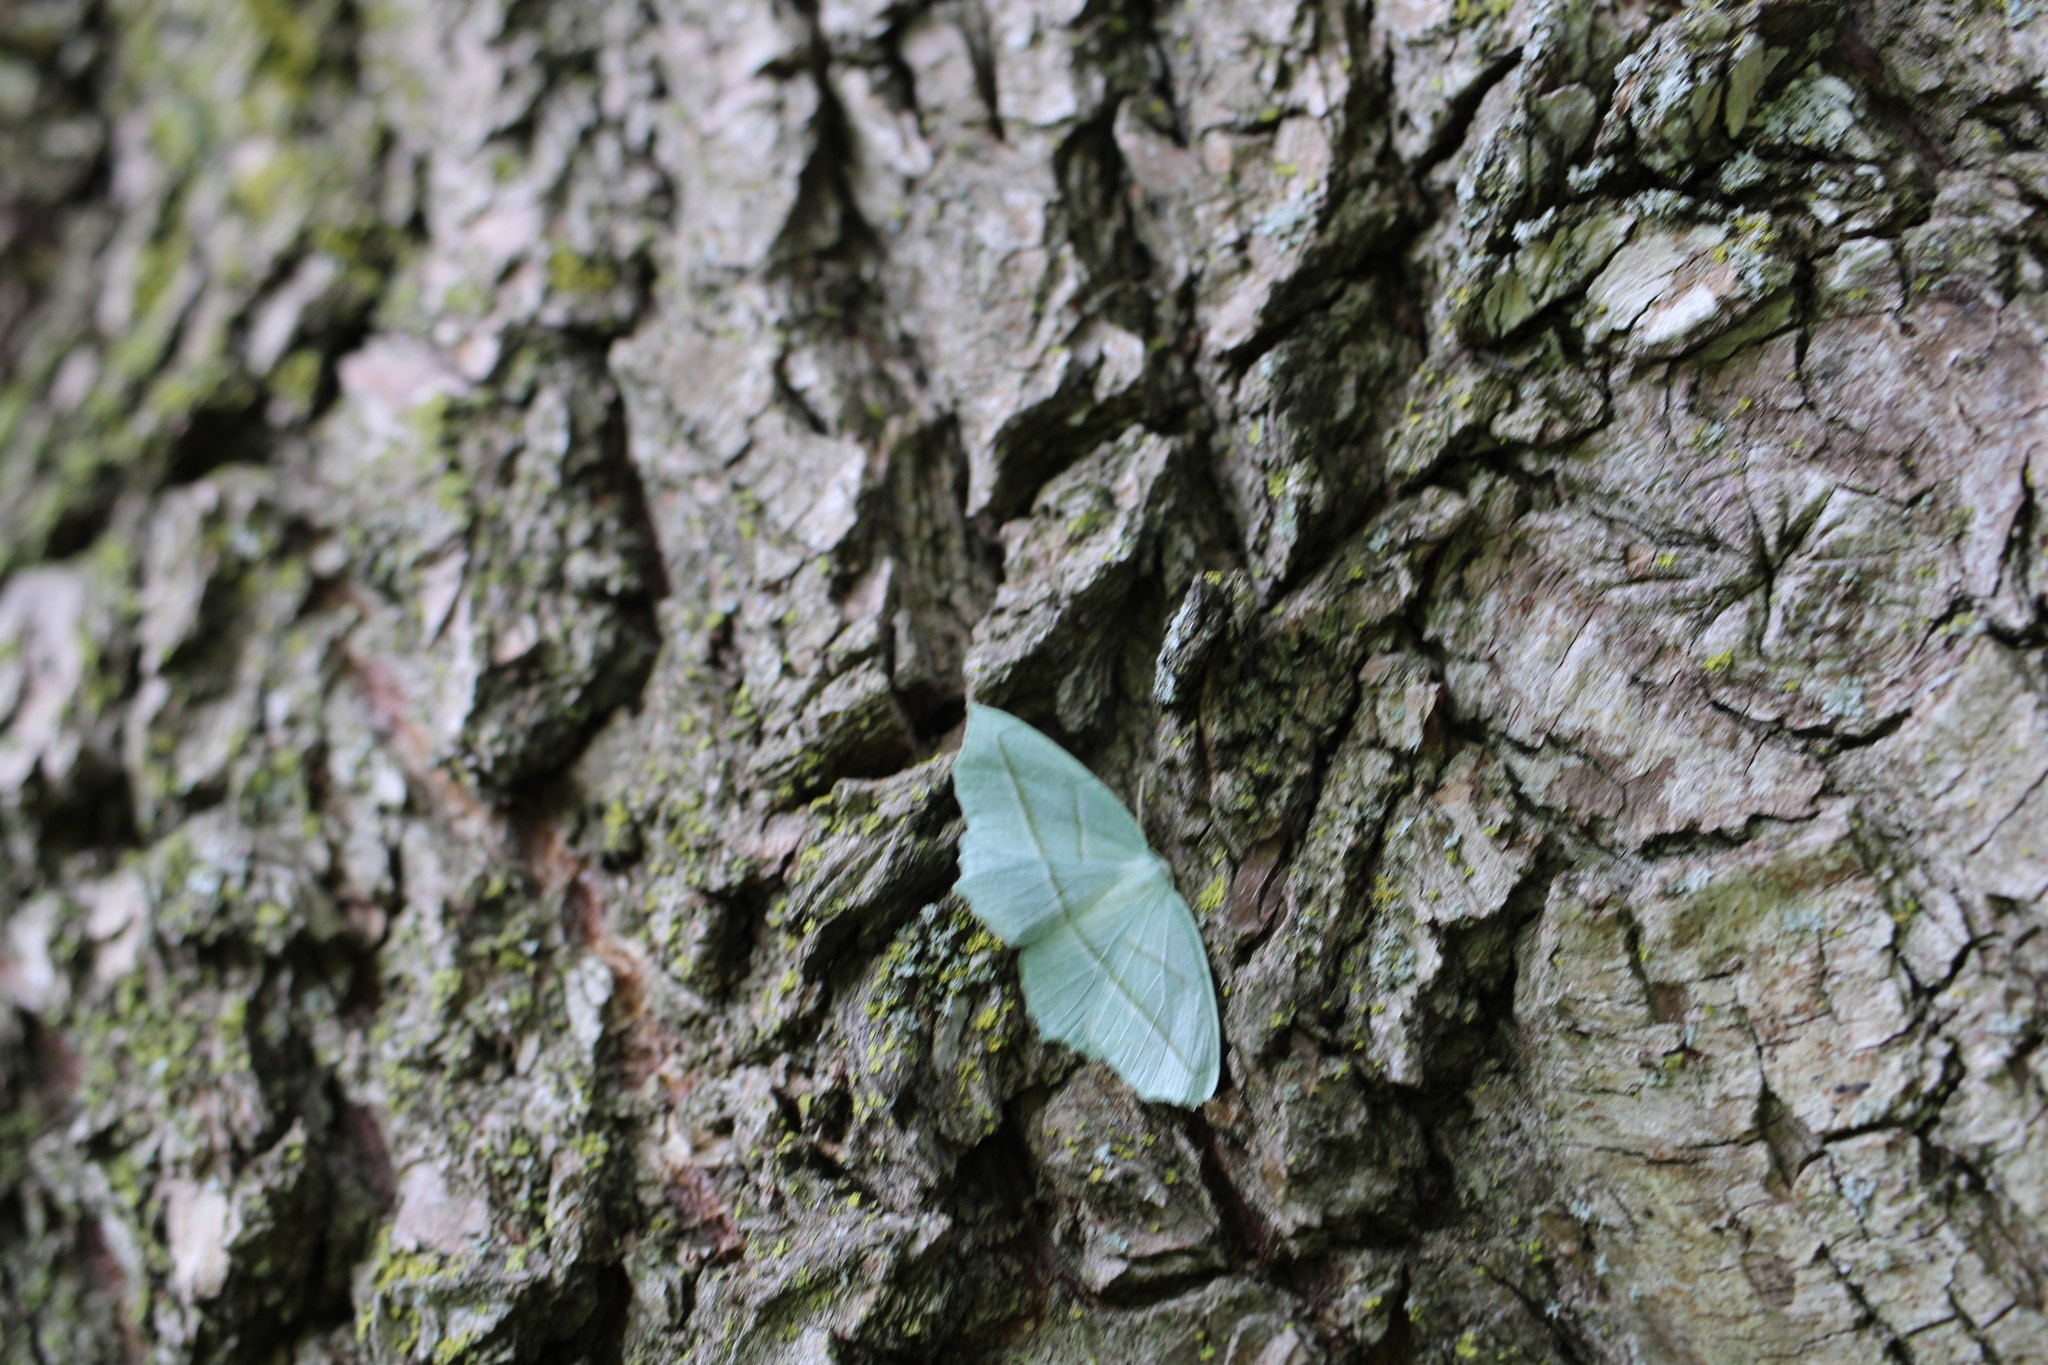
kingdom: Animalia
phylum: Arthropoda
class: Insecta
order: Lepidoptera
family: Geometridae
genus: Campaea
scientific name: Campaea perlata
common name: Fringed looper
